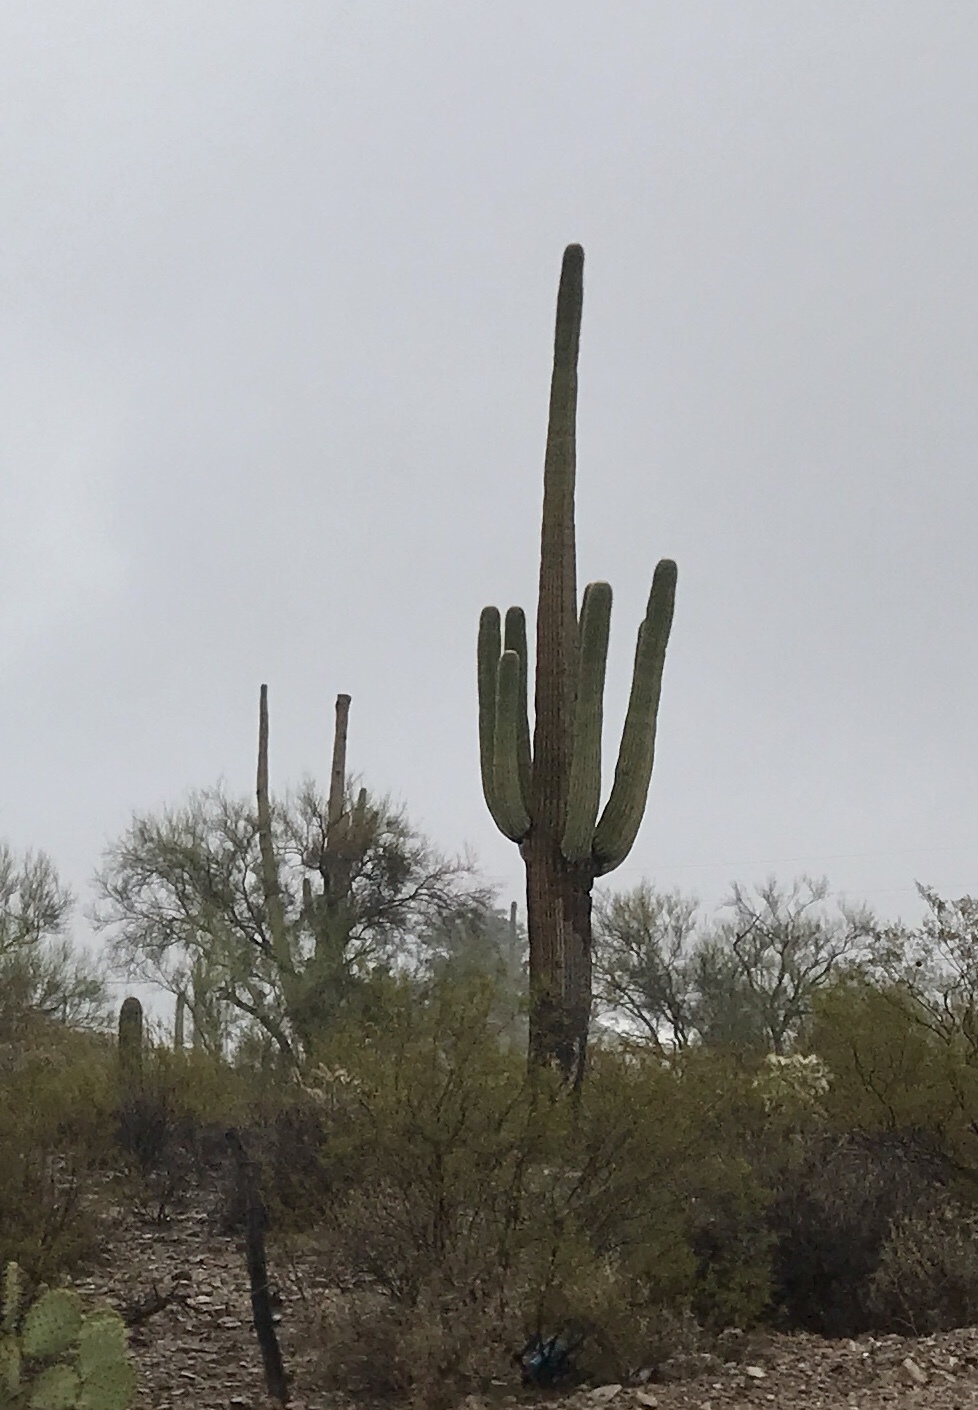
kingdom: Plantae
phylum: Tracheophyta
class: Magnoliopsida
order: Caryophyllales
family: Cactaceae
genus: Carnegiea
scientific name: Carnegiea gigantea
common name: Saguaro
